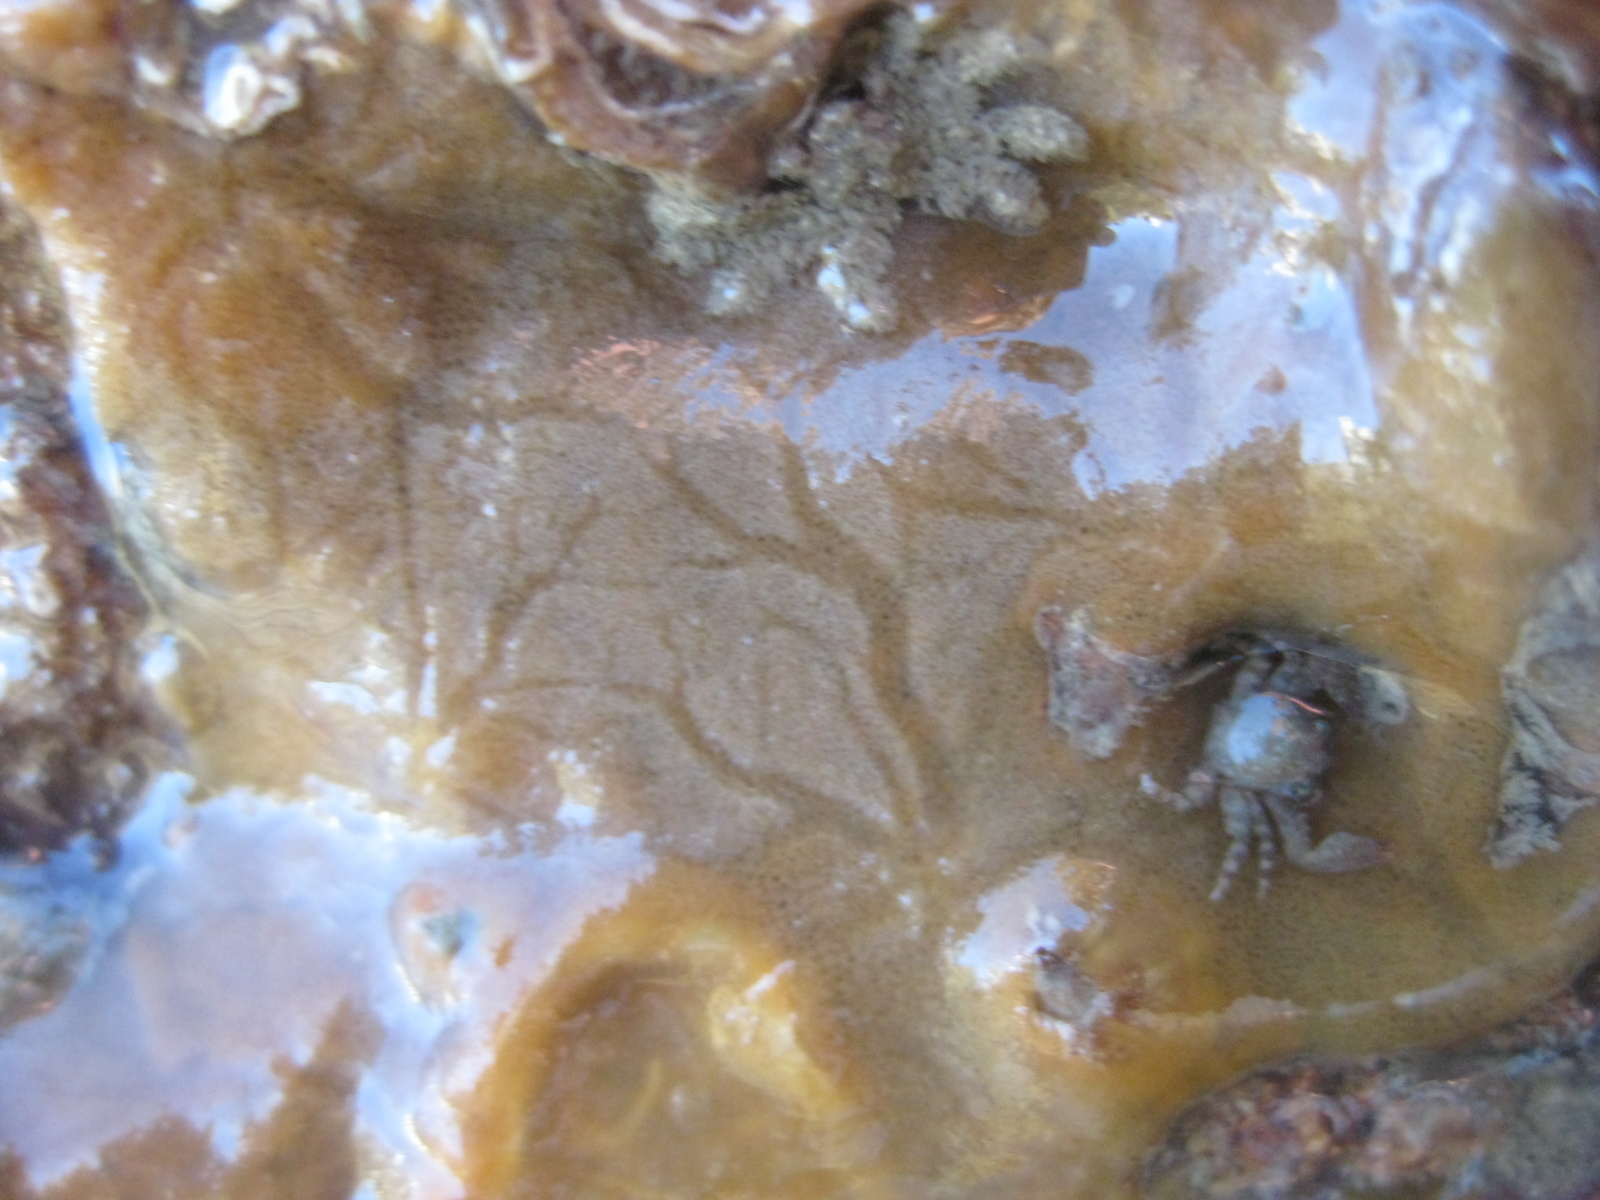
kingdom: Animalia
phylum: Porifera
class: Demospongiae
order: Tethyida
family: Timeidae
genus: Timea
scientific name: Timea aurantiaca
